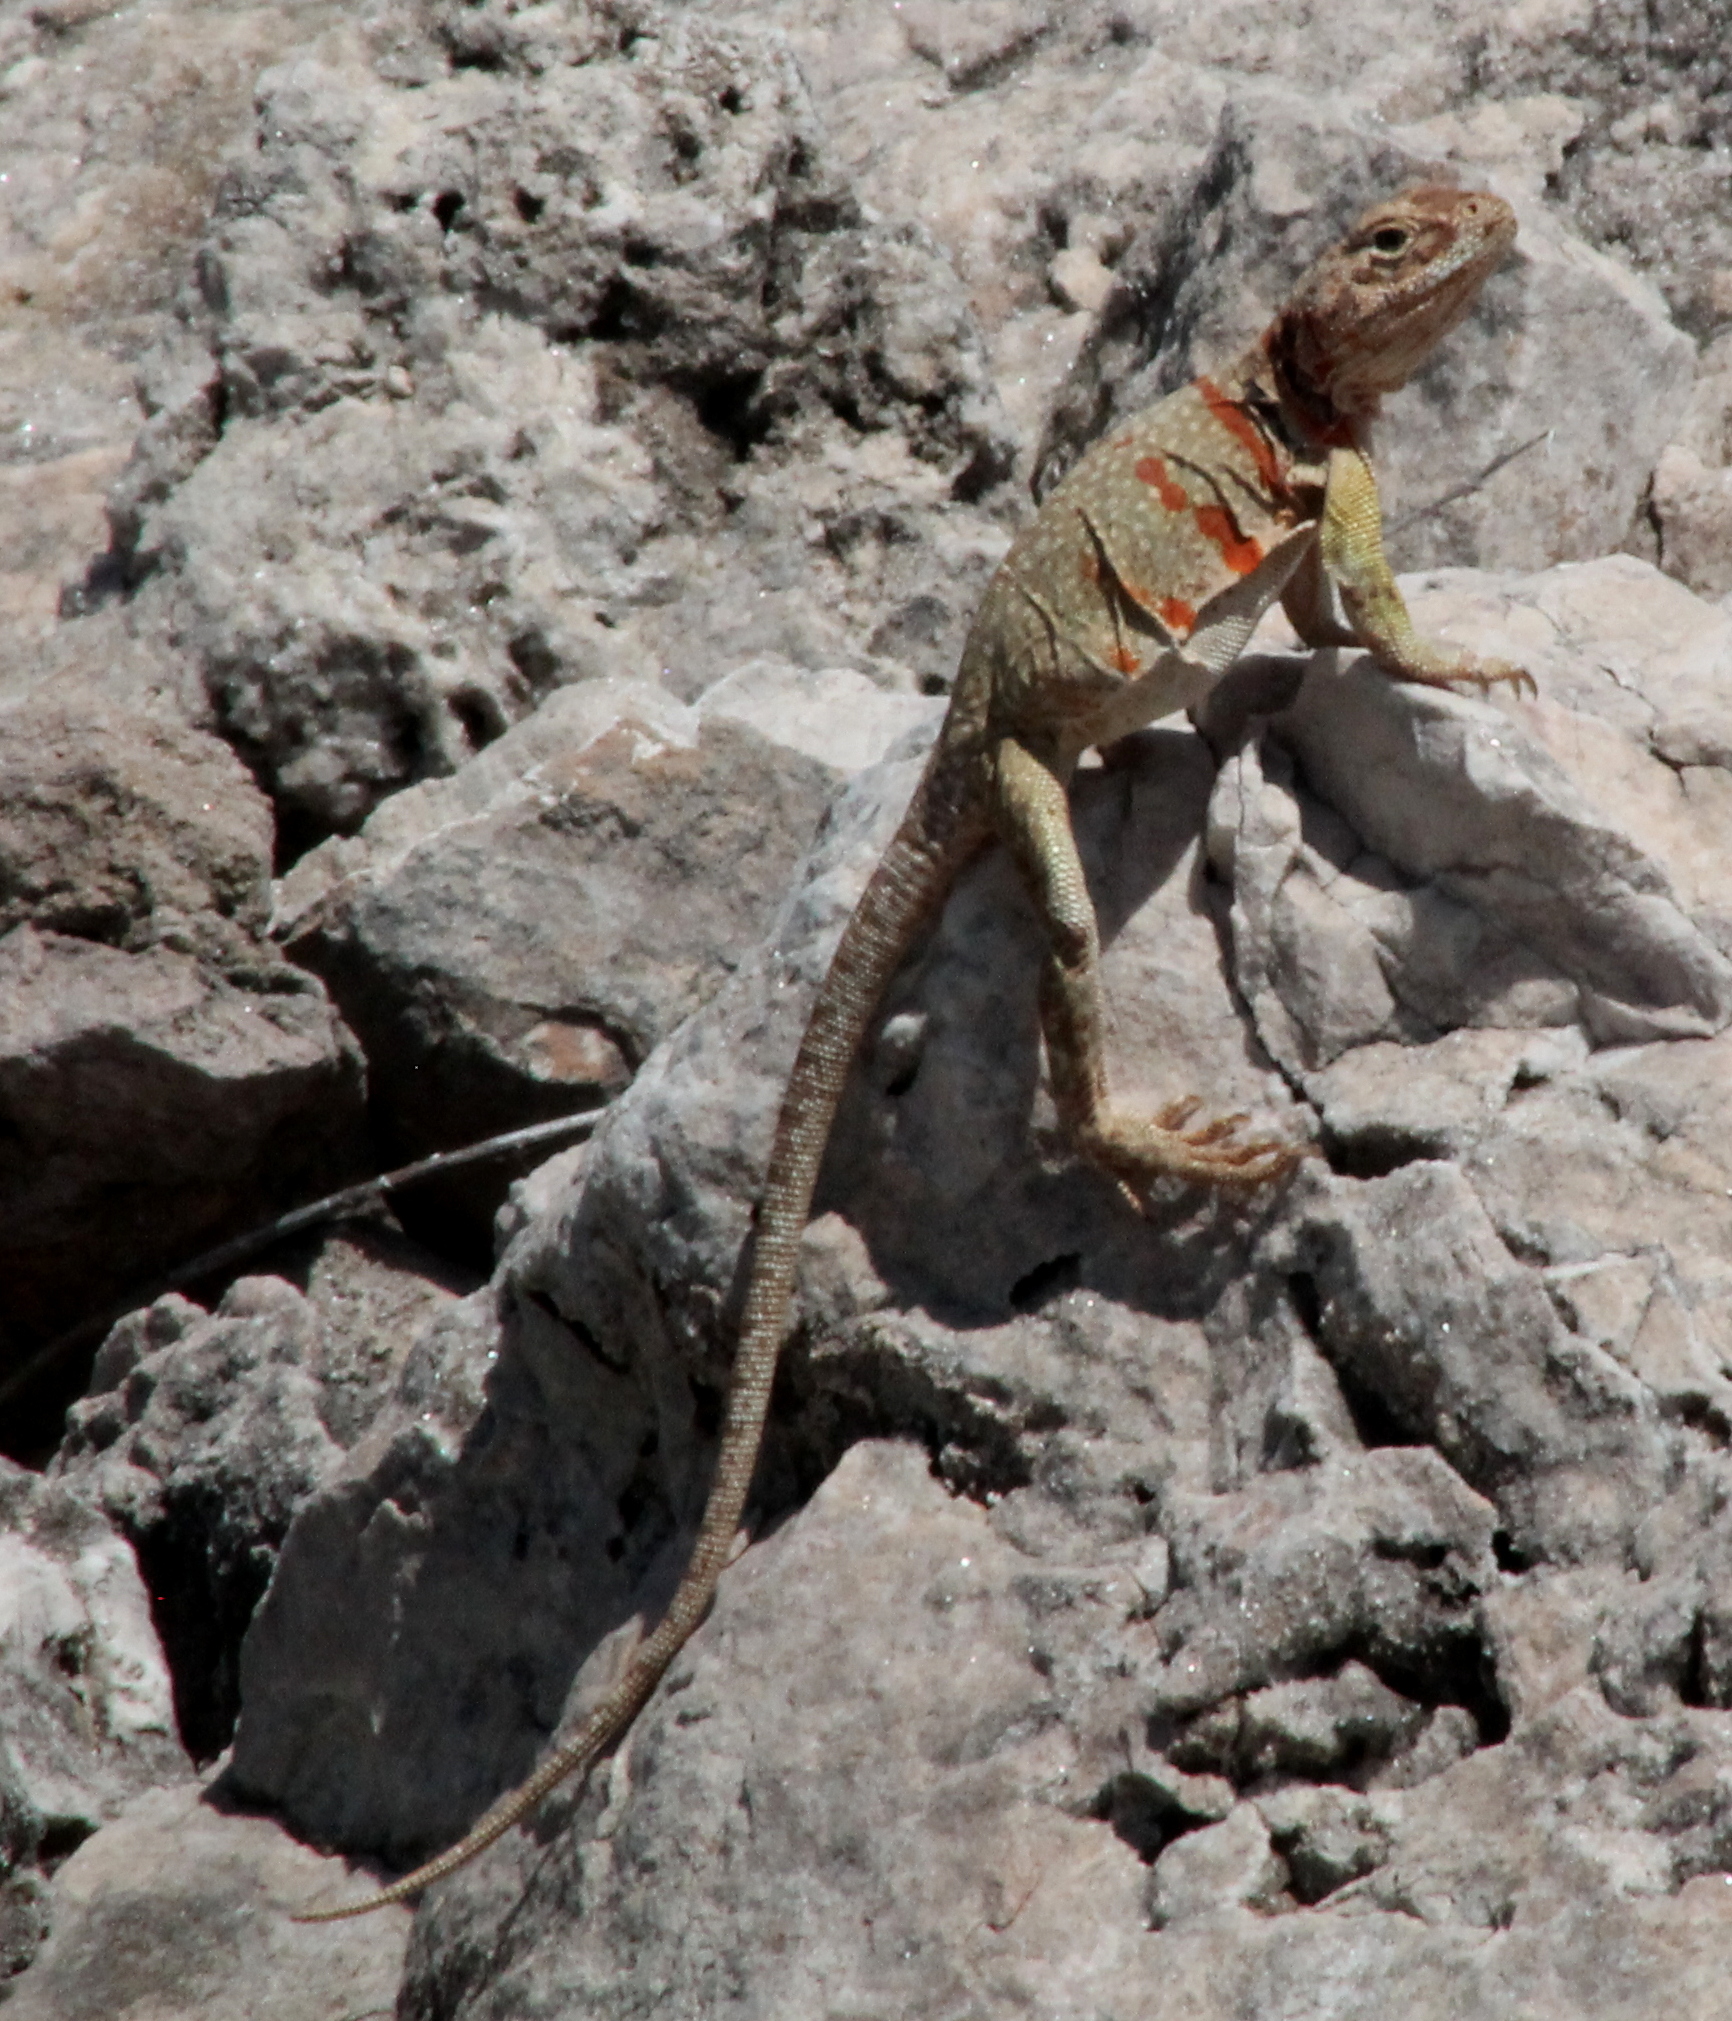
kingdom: Animalia
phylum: Chordata
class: Squamata
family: Crotaphytidae
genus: Crotaphytus
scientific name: Crotaphytus collaris
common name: Collared lizard
